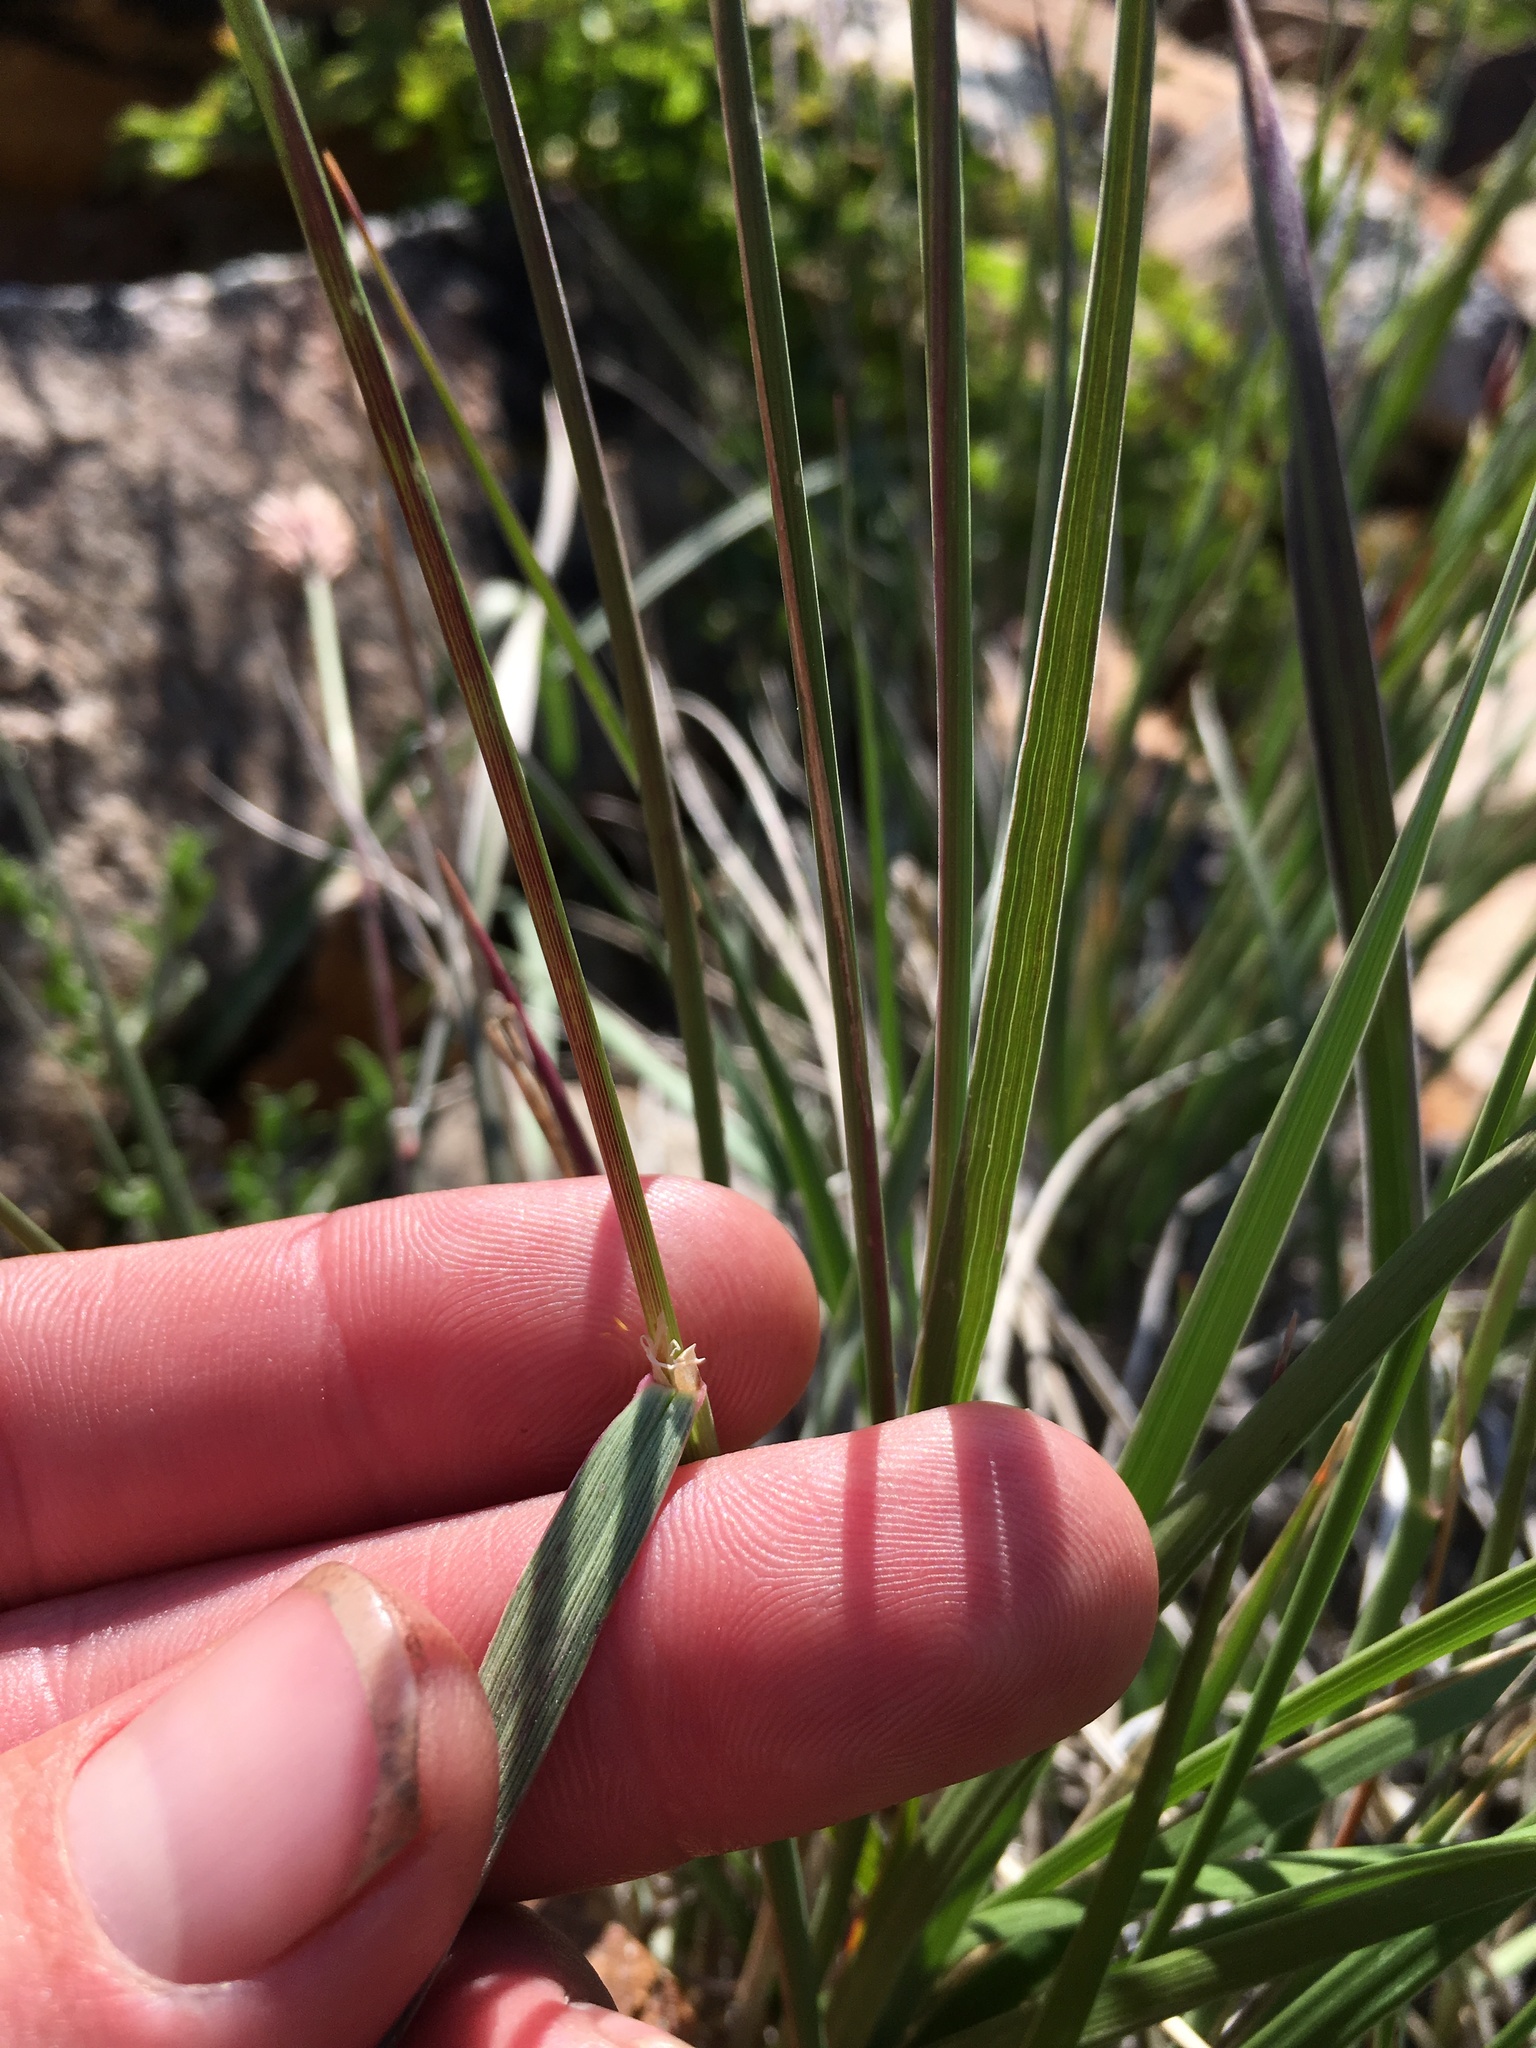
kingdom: Plantae
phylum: Tracheophyta
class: Liliopsida
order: Poales
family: Poaceae
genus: Calamagrostis
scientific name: Calamagrostis purpurascens
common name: Purple reedgrass
